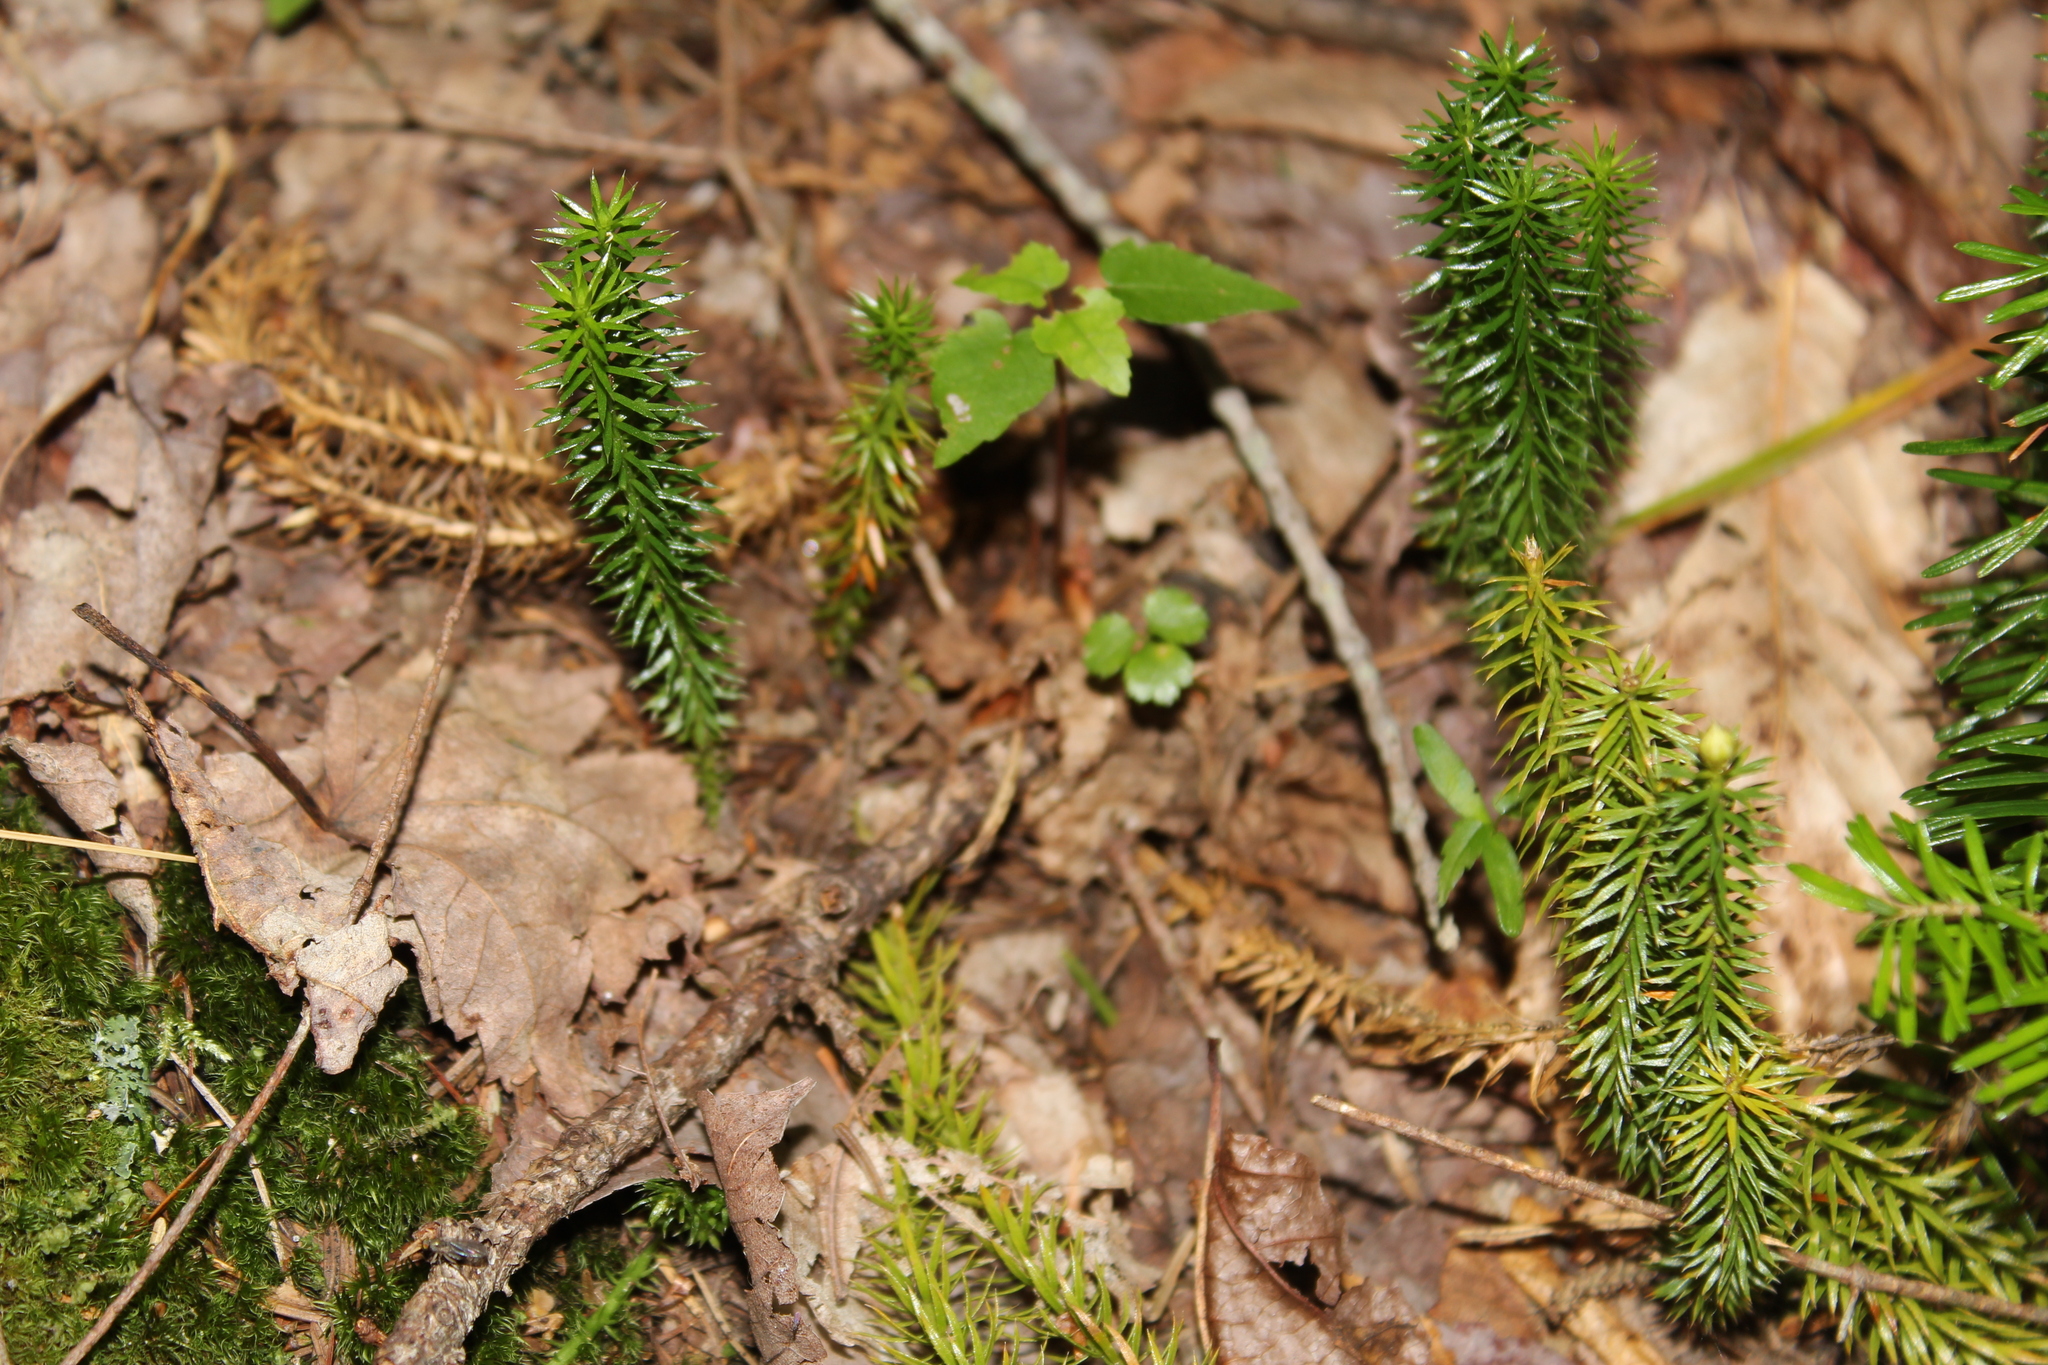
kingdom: Plantae
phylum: Tracheophyta
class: Lycopodiopsida
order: Lycopodiales
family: Lycopodiaceae
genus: Spinulum
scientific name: Spinulum annotinum
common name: Interrupted club-moss
